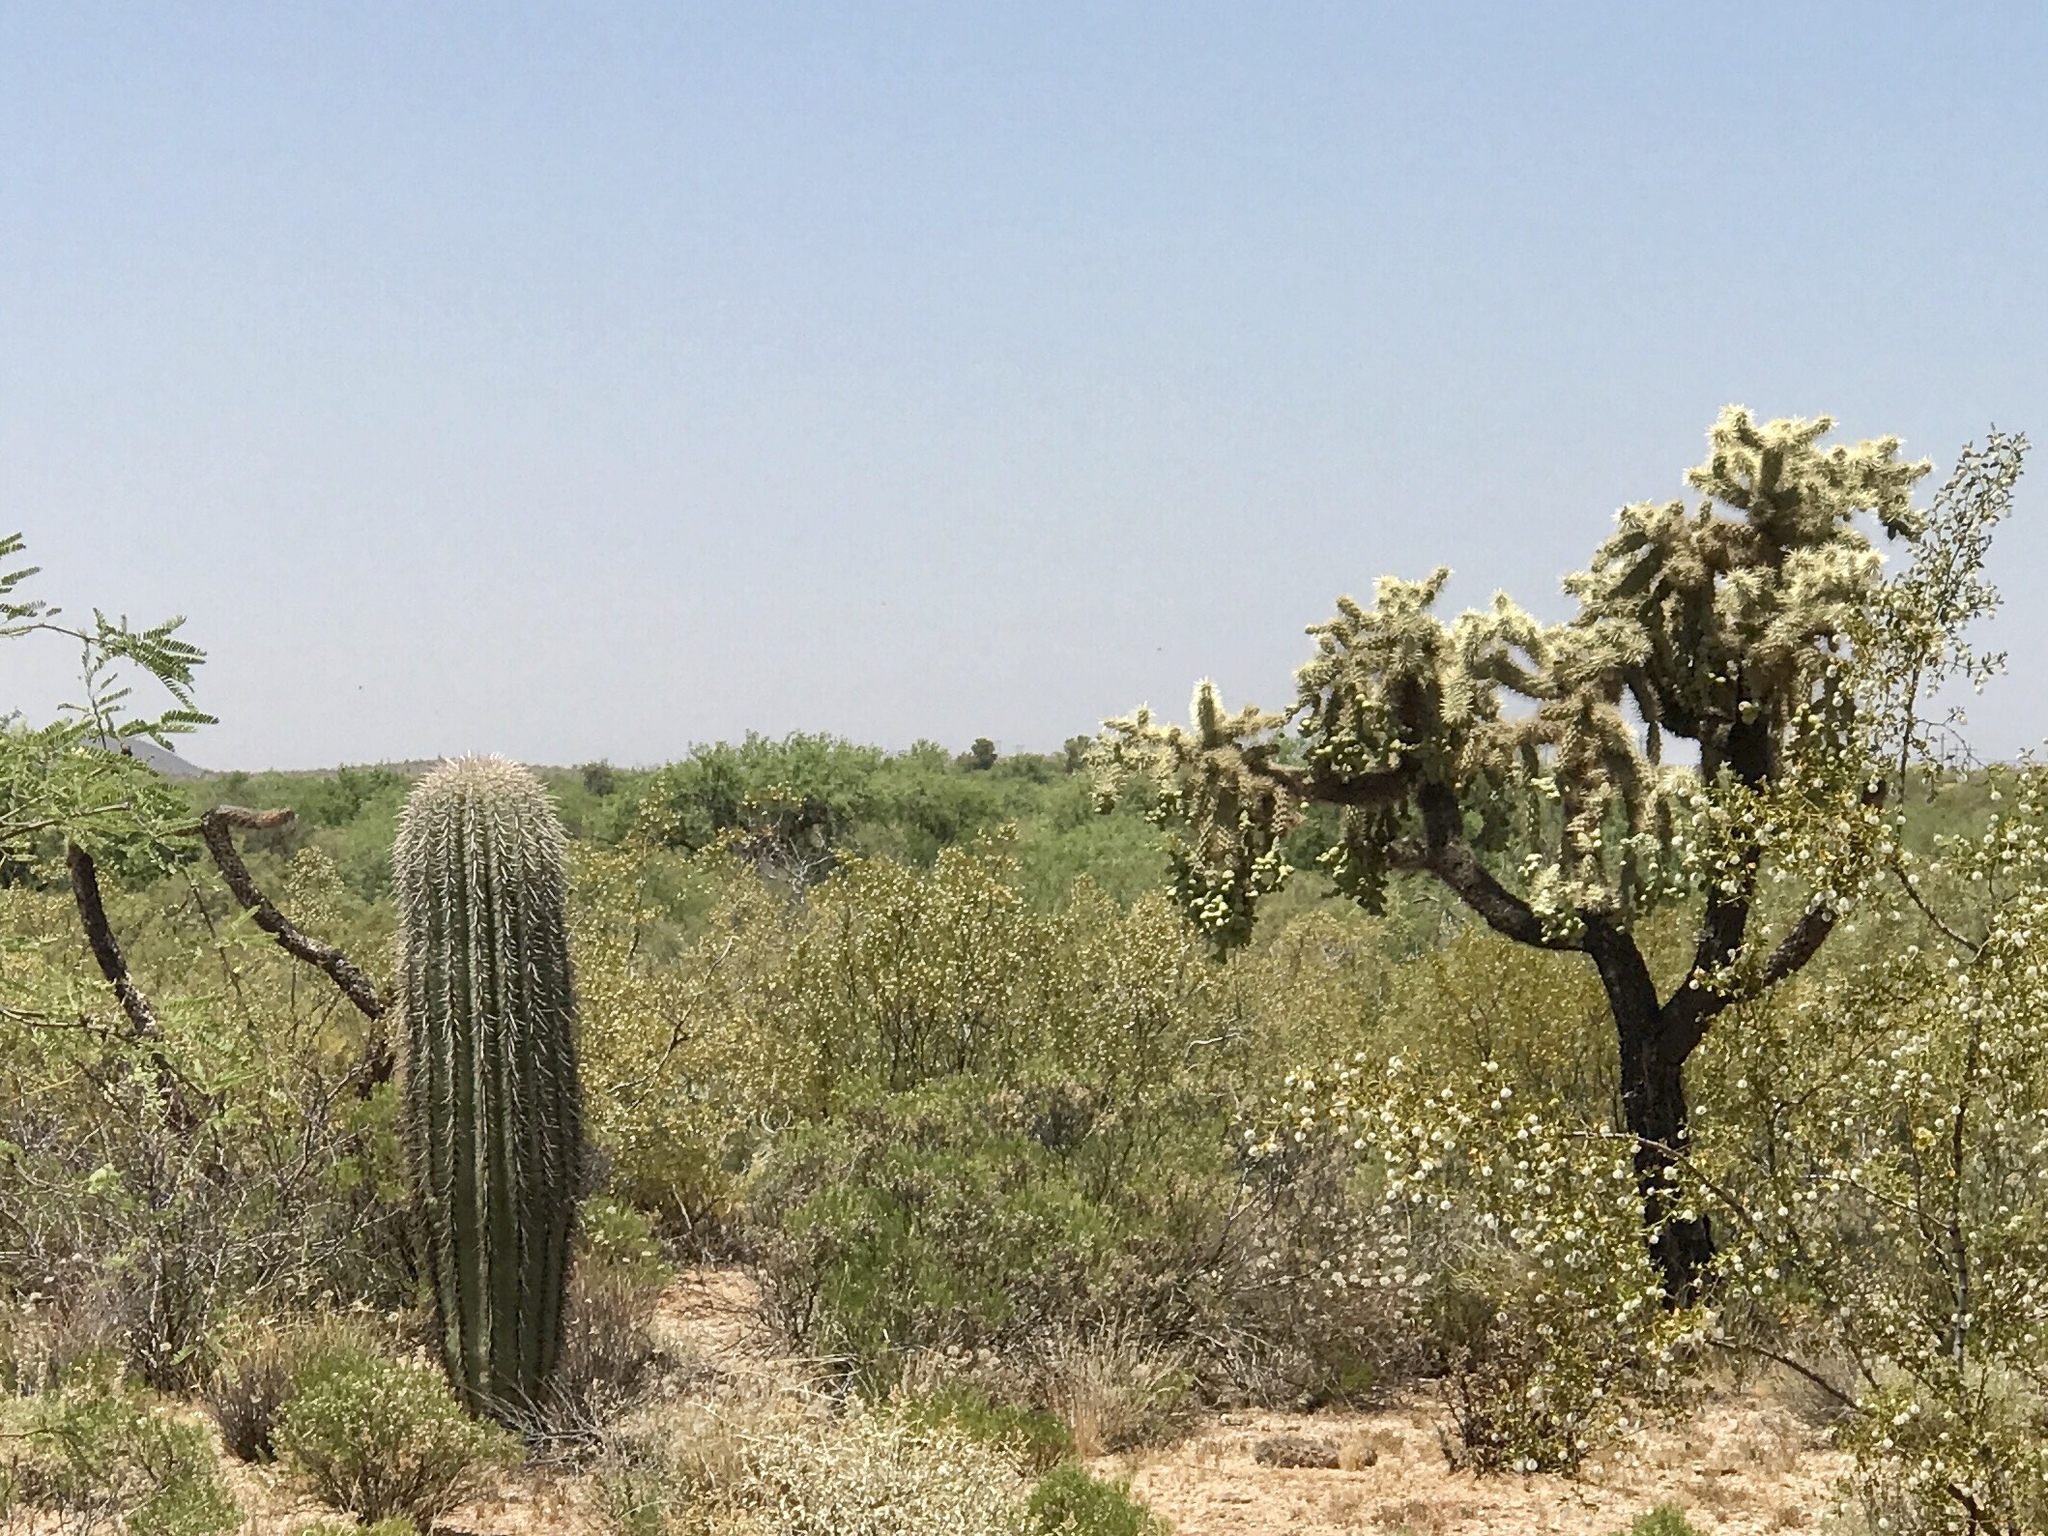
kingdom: Plantae
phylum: Tracheophyta
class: Magnoliopsida
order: Caryophyllales
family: Cactaceae
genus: Cylindropuntia
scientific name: Cylindropuntia fulgida
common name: Jumping cholla
